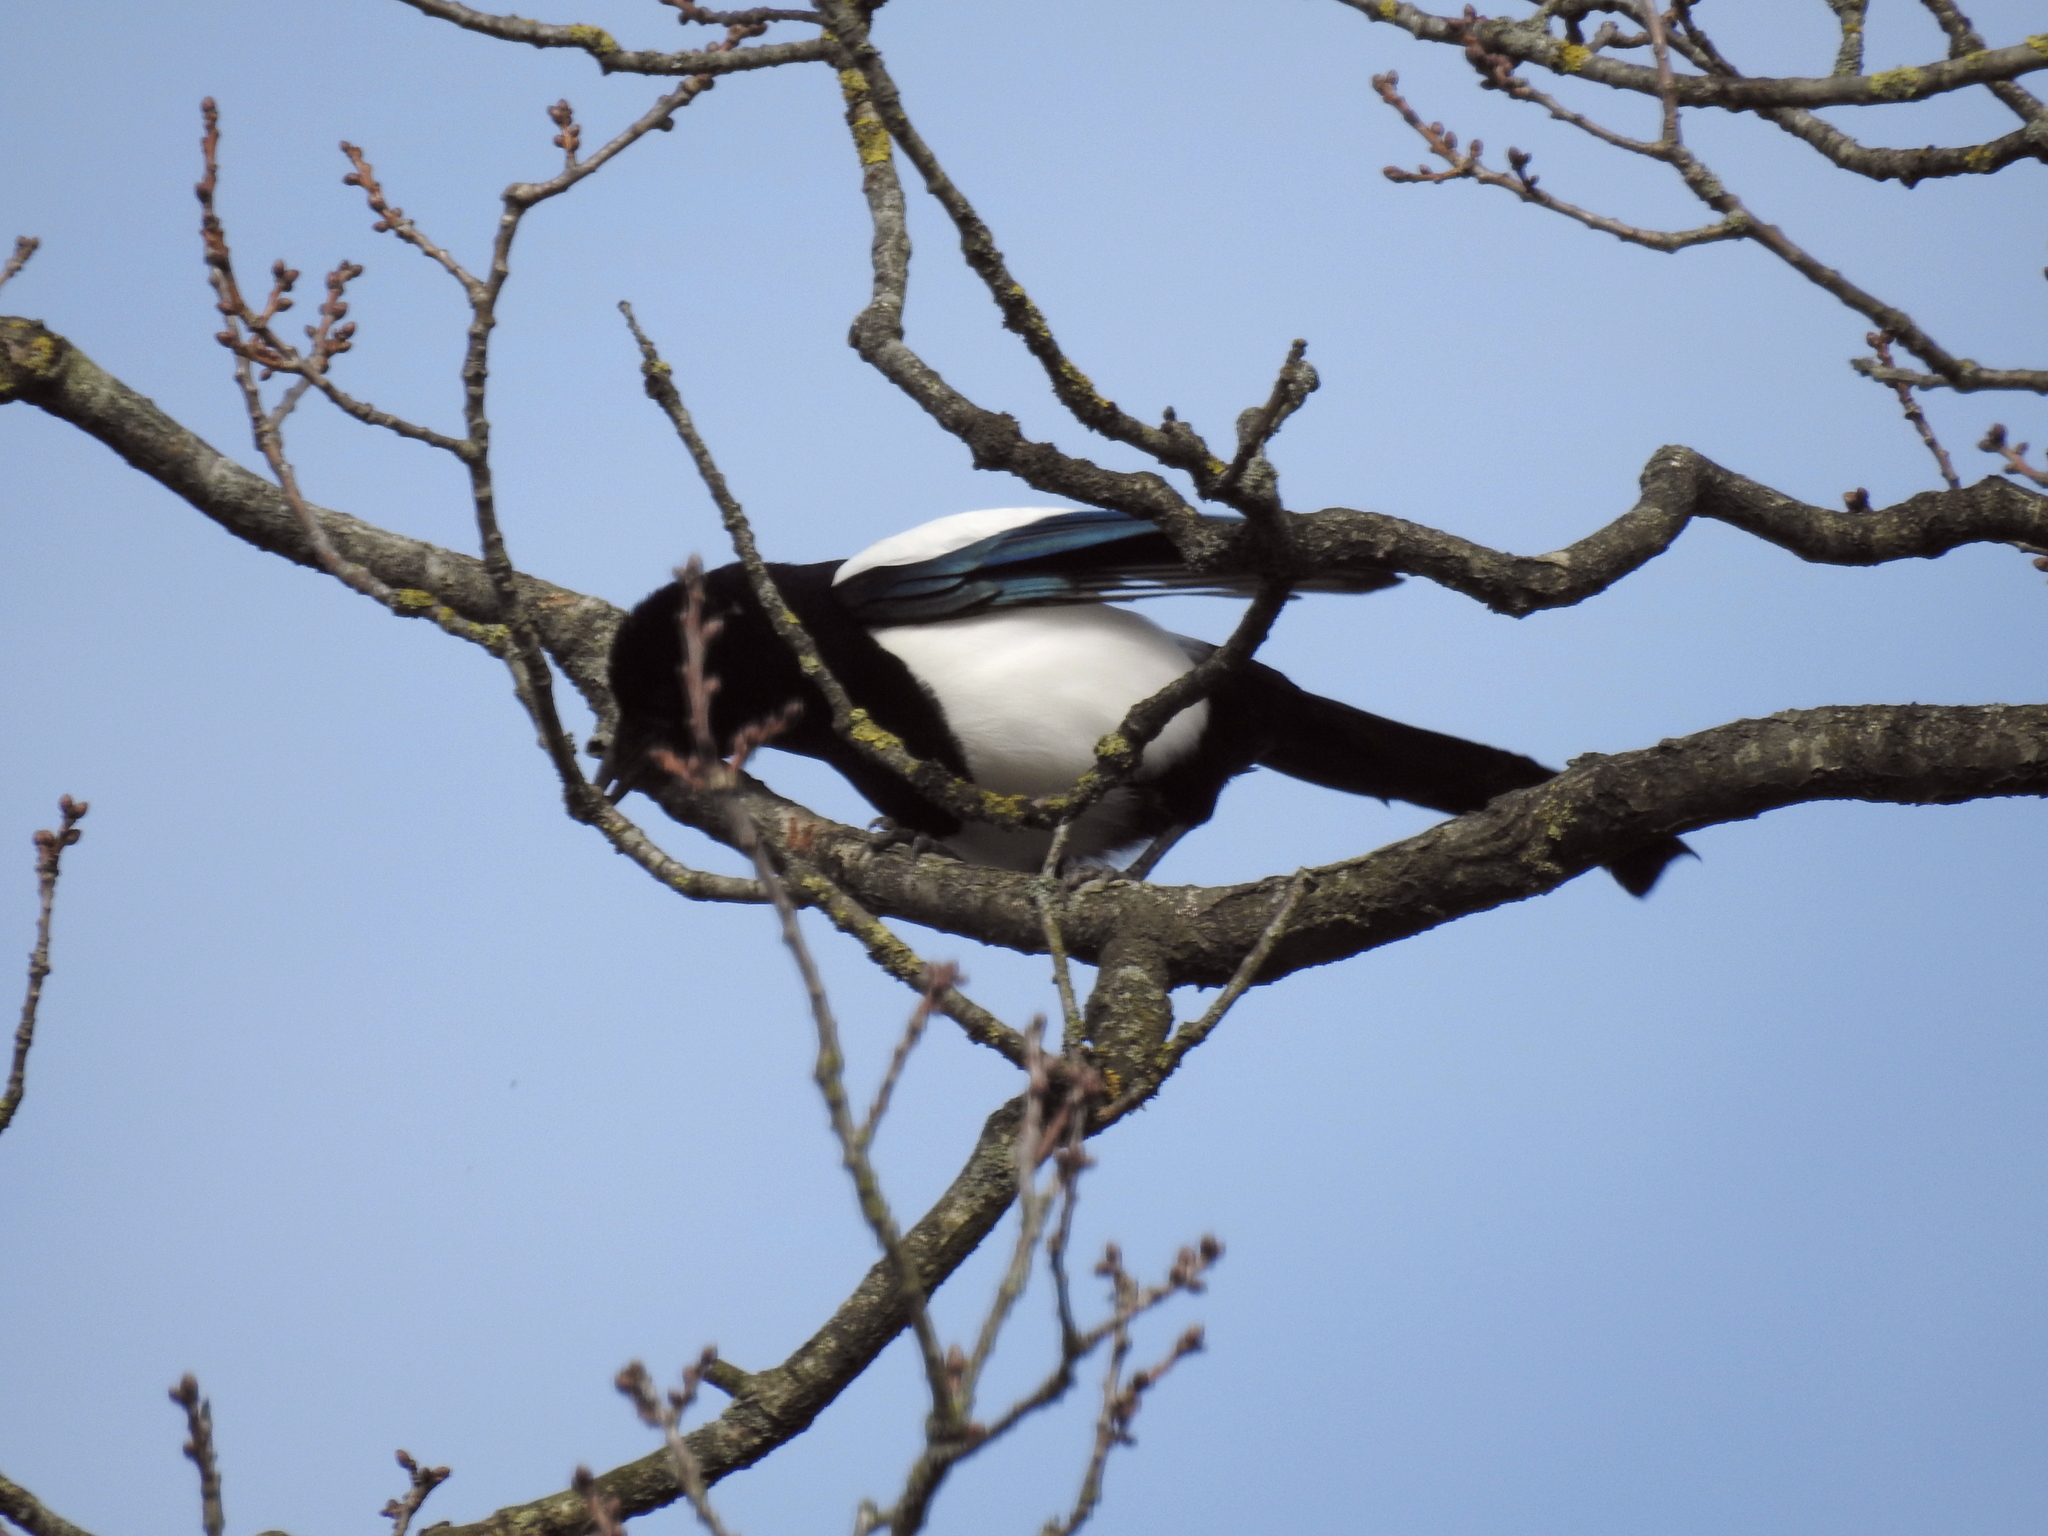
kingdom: Animalia
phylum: Chordata
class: Aves
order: Passeriformes
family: Corvidae
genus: Pica
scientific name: Pica pica
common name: Eurasian magpie
